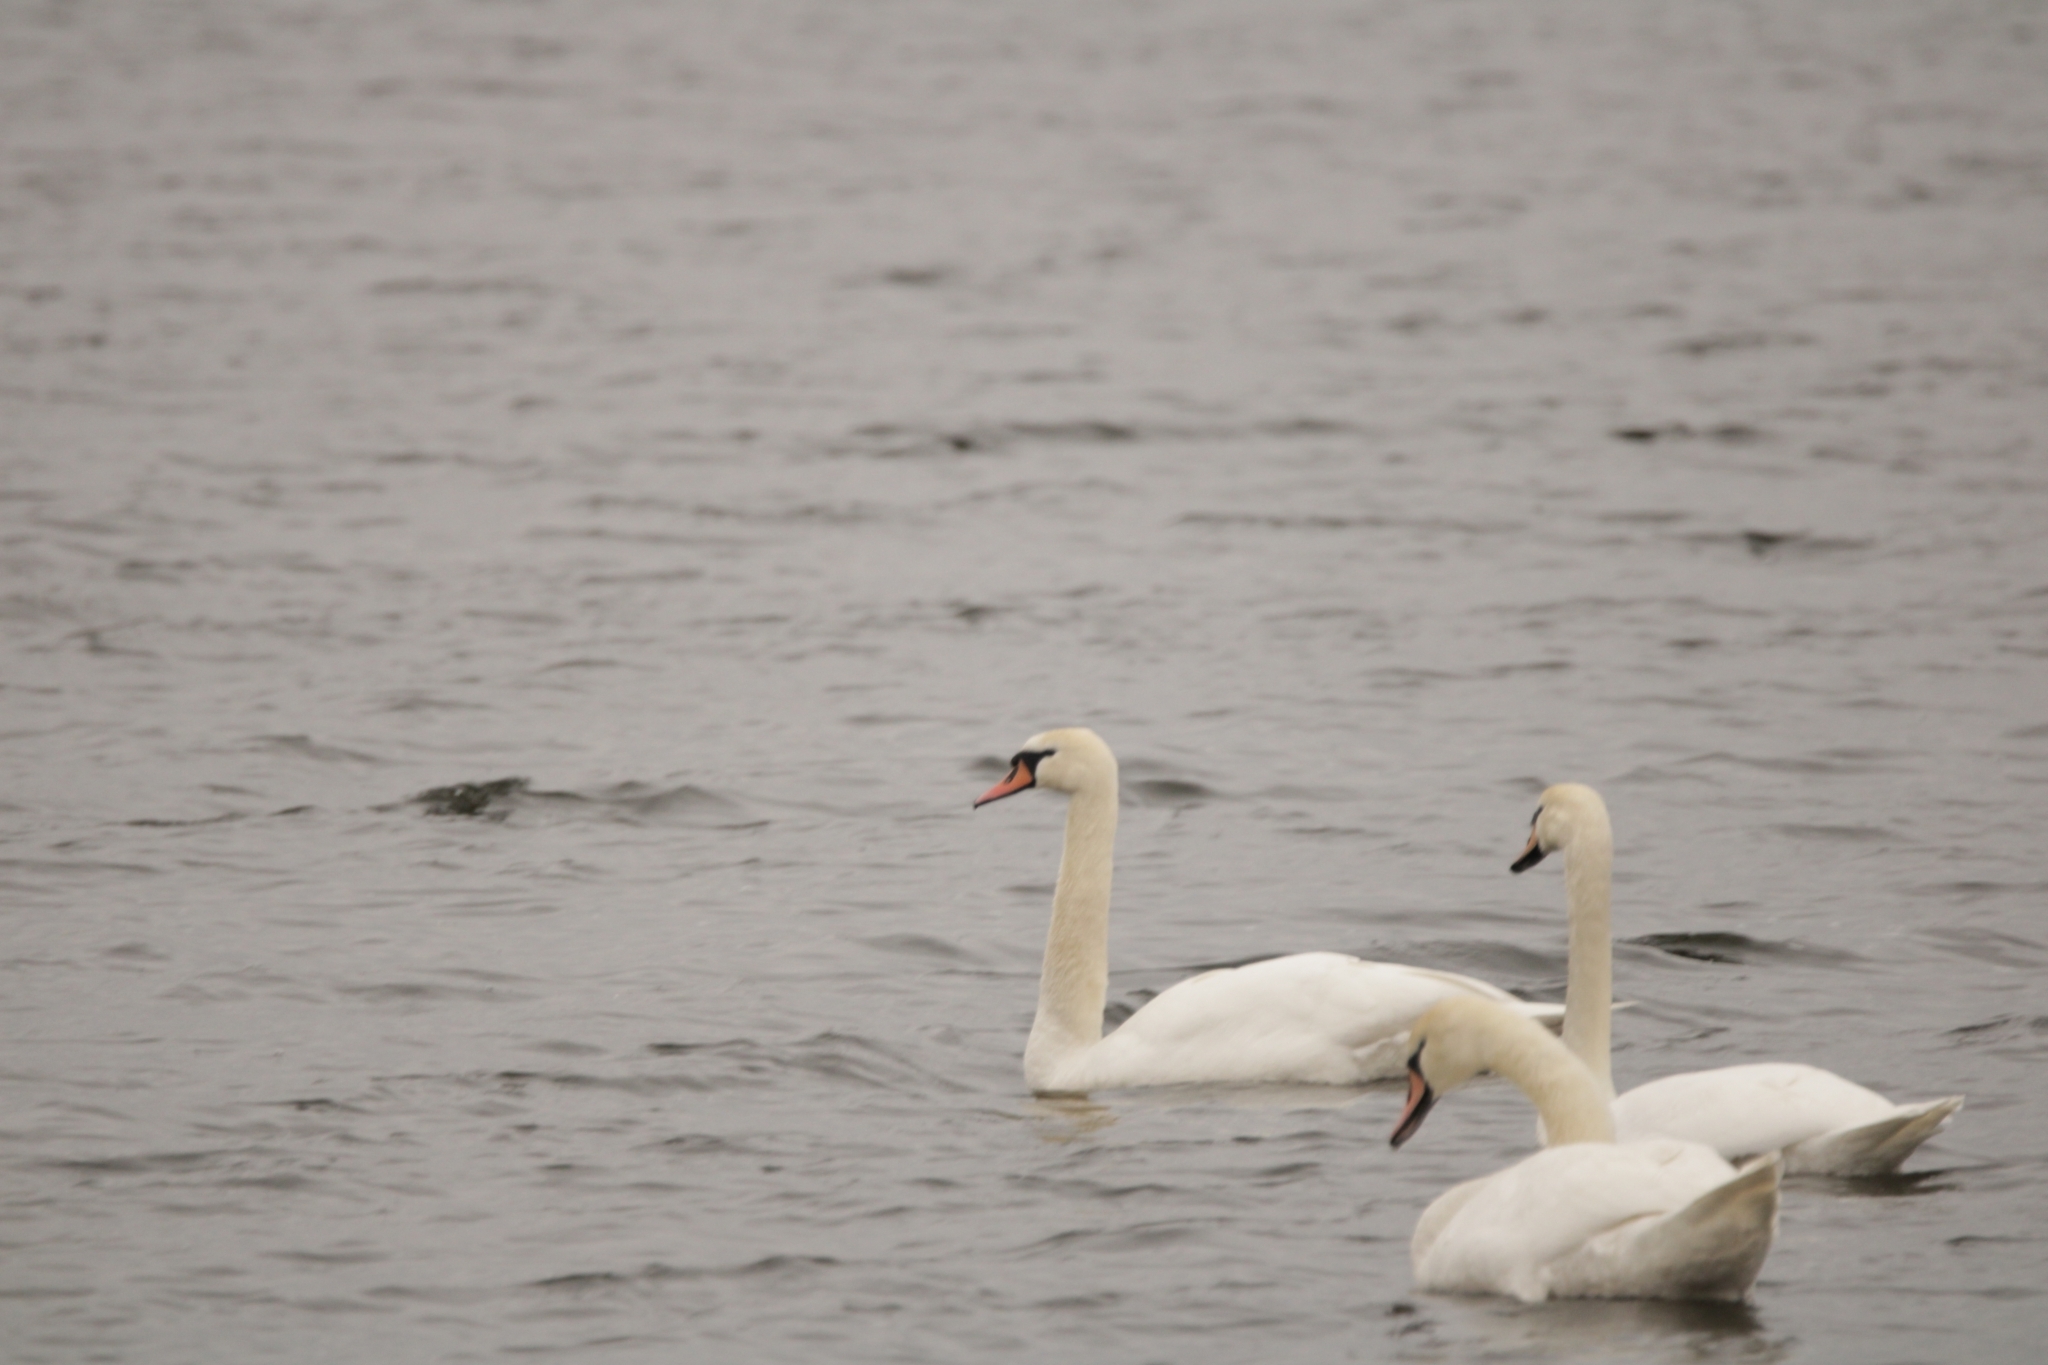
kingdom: Animalia
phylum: Chordata
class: Aves
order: Anseriformes
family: Anatidae
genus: Cygnus
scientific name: Cygnus olor
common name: Mute swan
